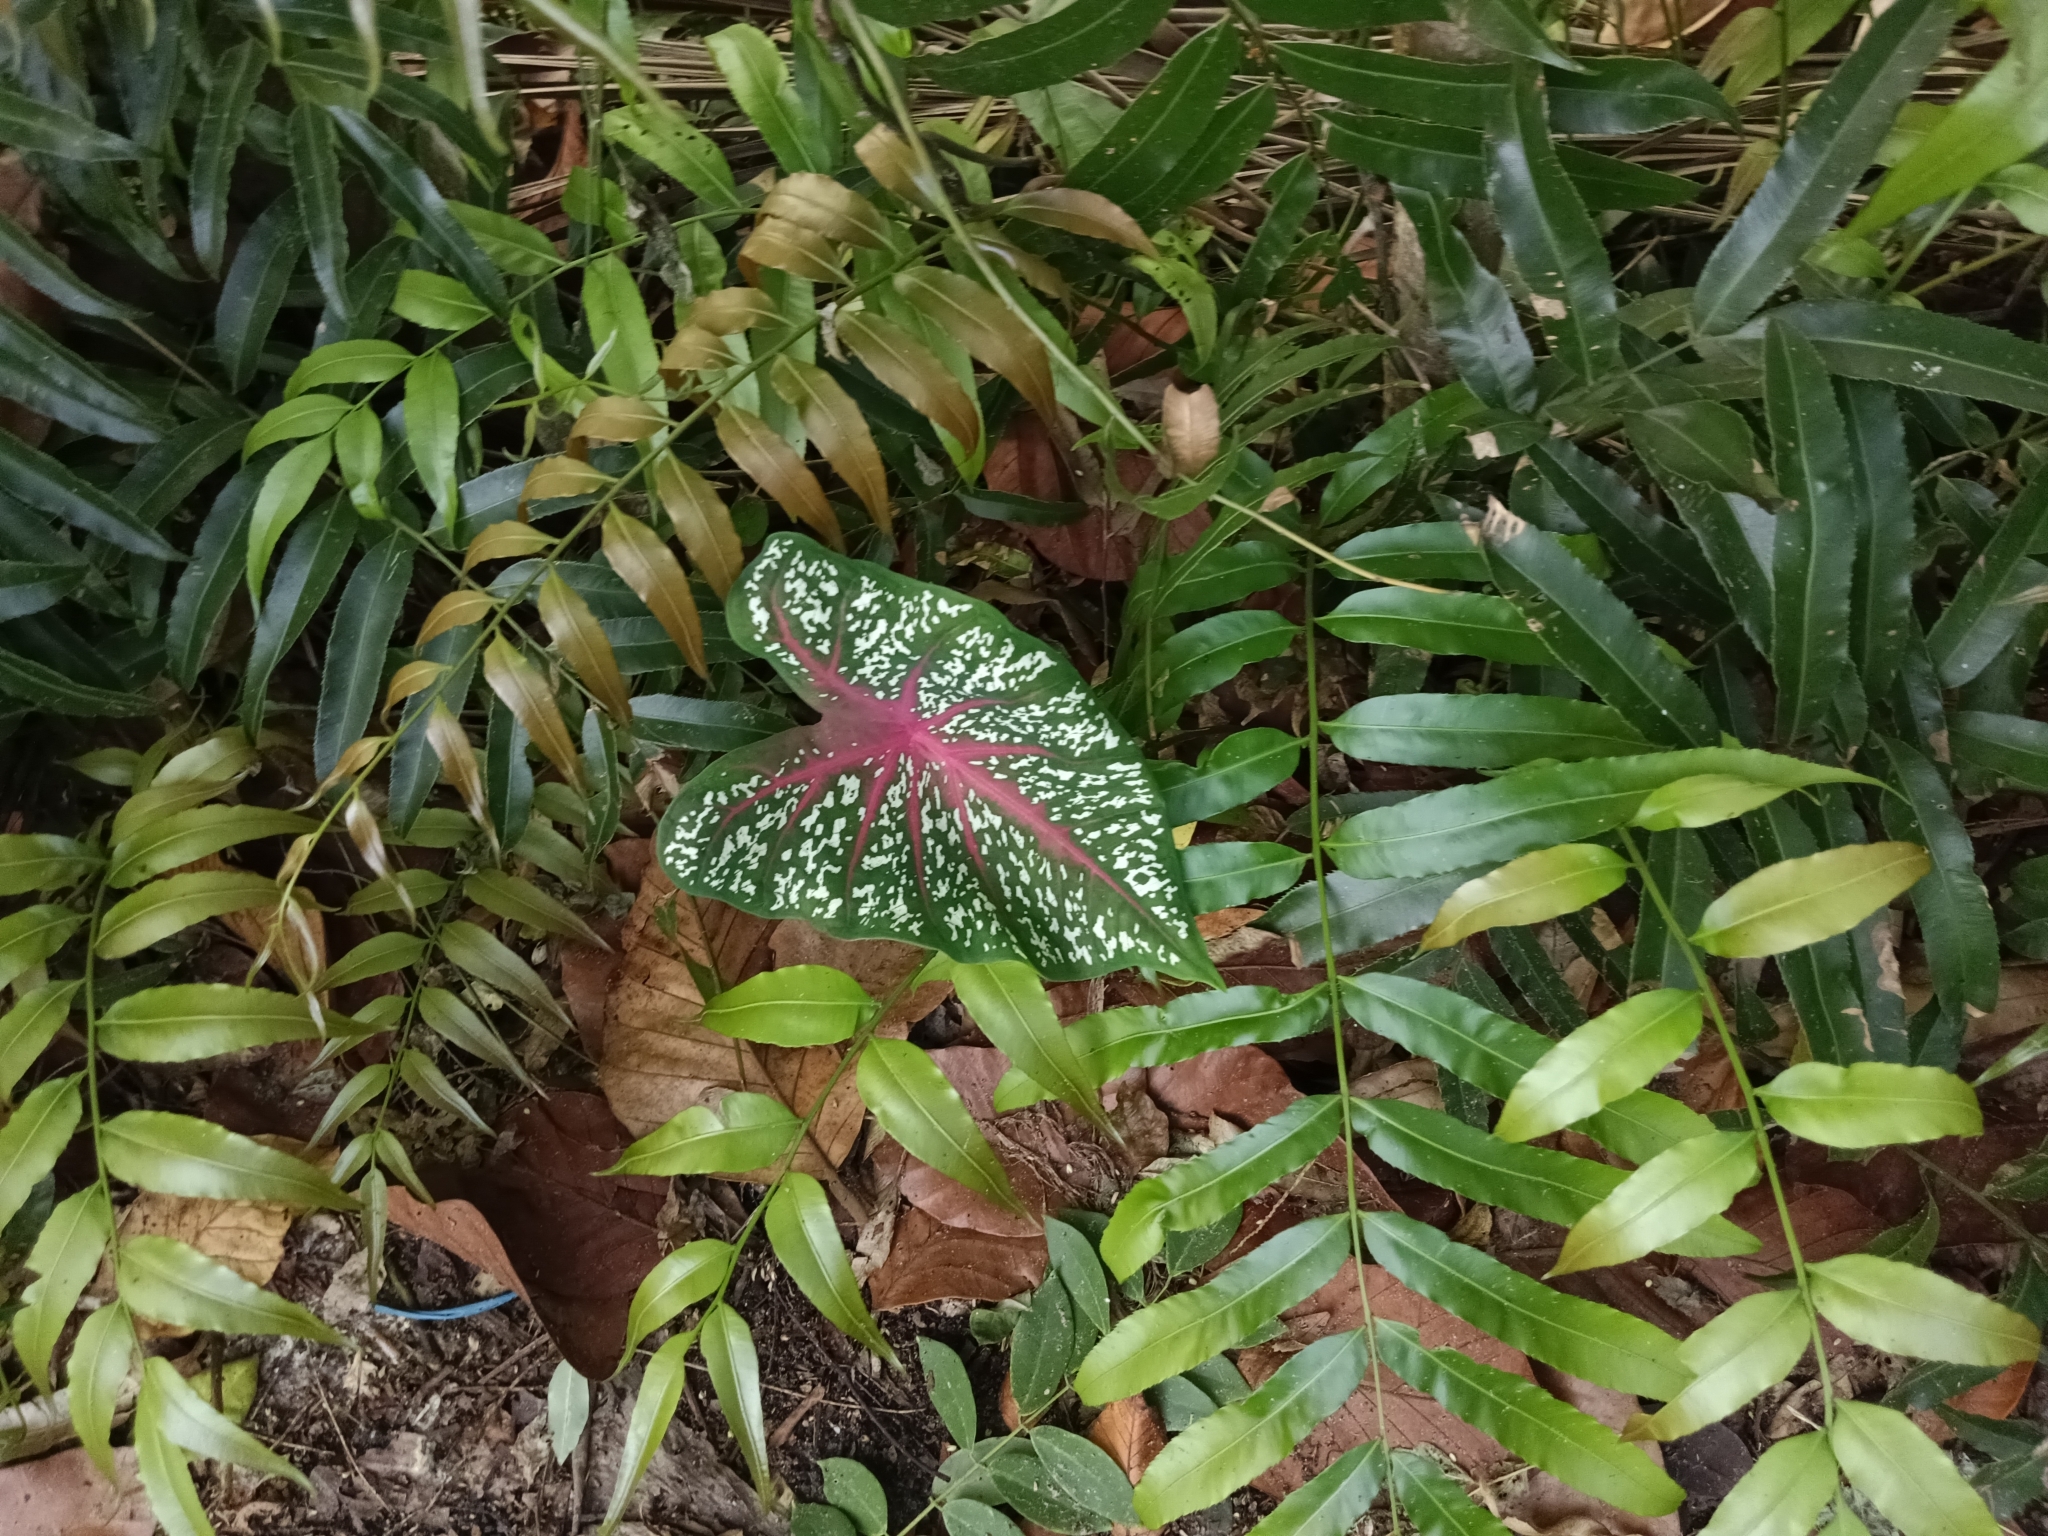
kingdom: Plantae
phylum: Tracheophyta
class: Liliopsida
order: Alismatales
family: Araceae
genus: Caladium
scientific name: Caladium bicolor
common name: Artist's pallet
